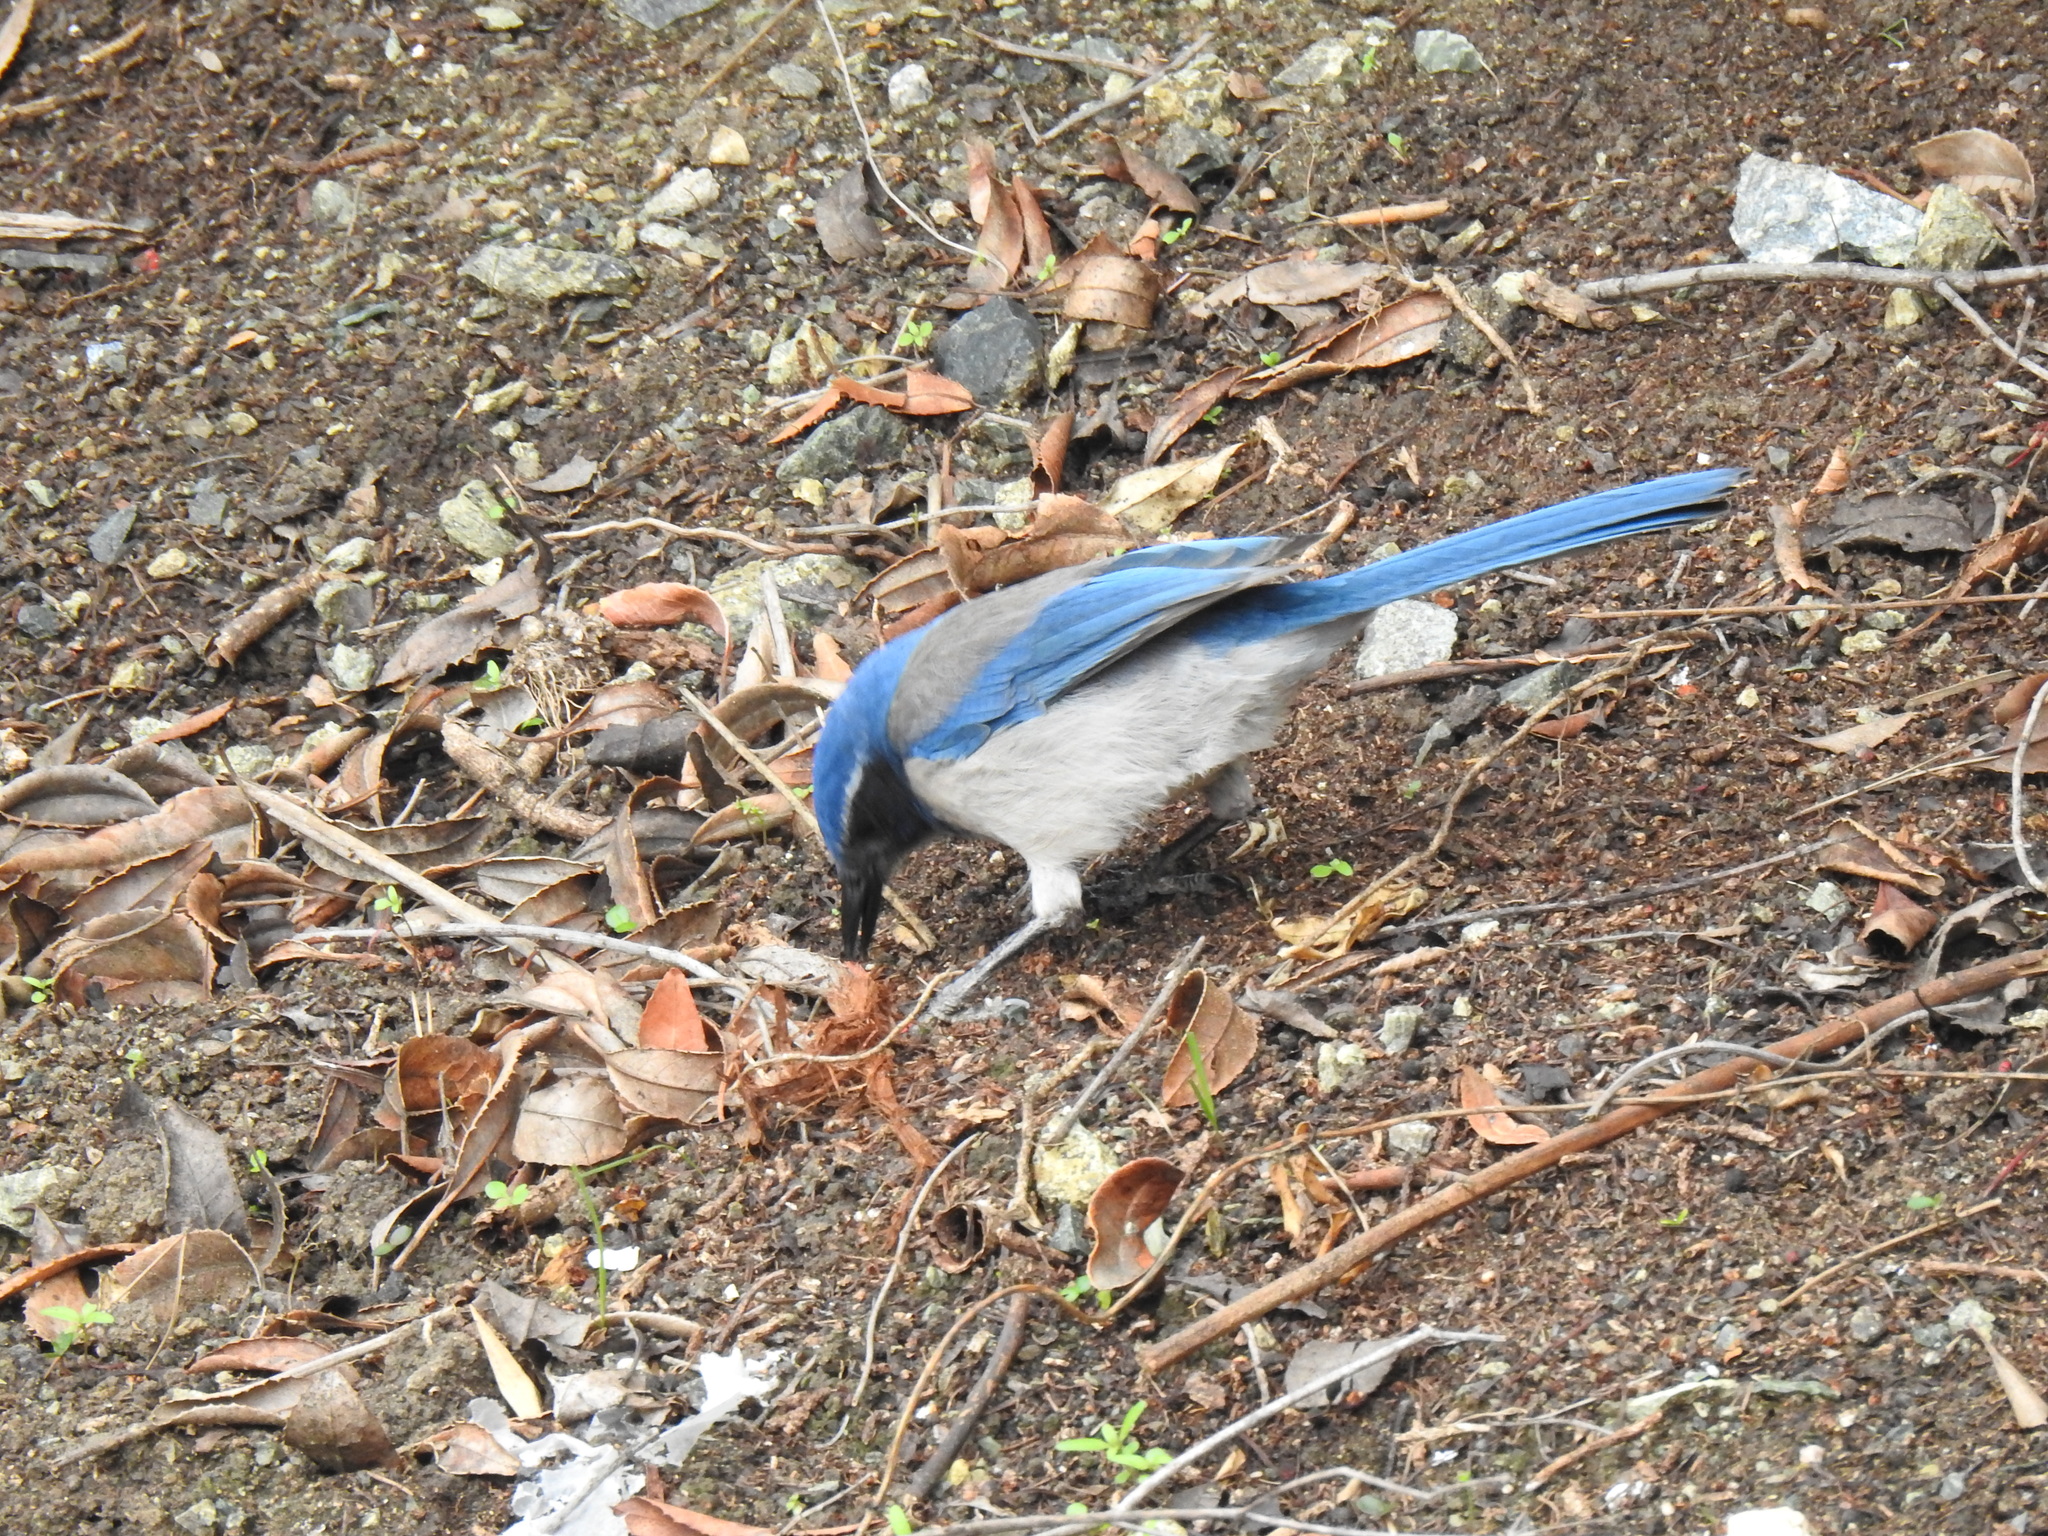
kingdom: Animalia
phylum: Chordata
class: Aves
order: Passeriformes
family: Corvidae
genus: Aphelocoma
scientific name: Aphelocoma californica
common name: California scrub-jay
